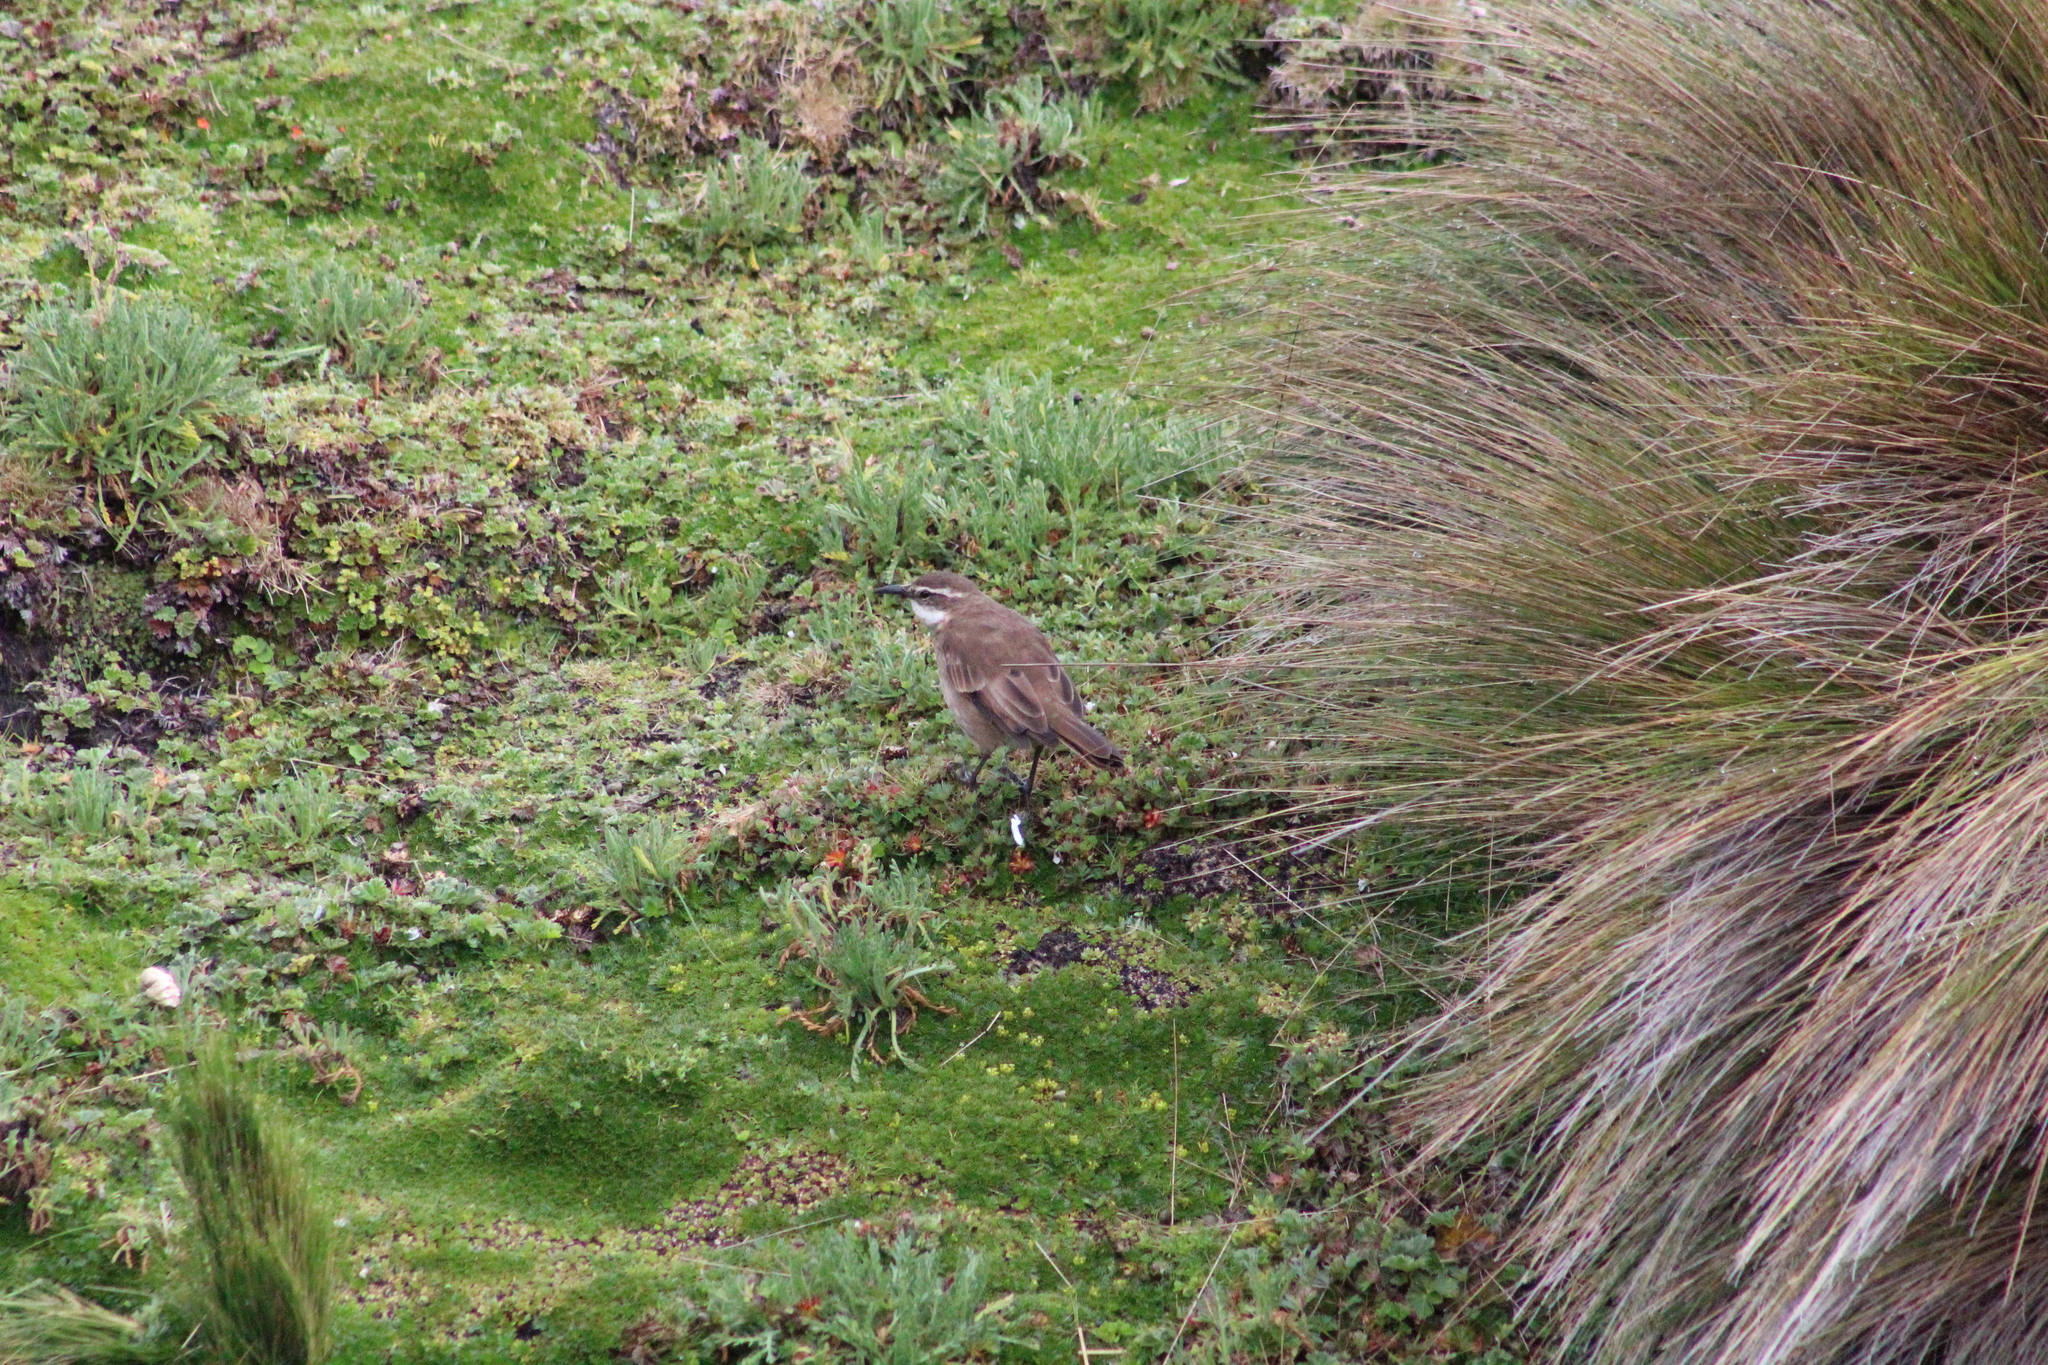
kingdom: Animalia
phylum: Chordata
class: Aves
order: Passeriformes
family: Furnariidae
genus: Cinclodes
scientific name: Cinclodes albidiventris
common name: Chestnut-winged cinclodes
